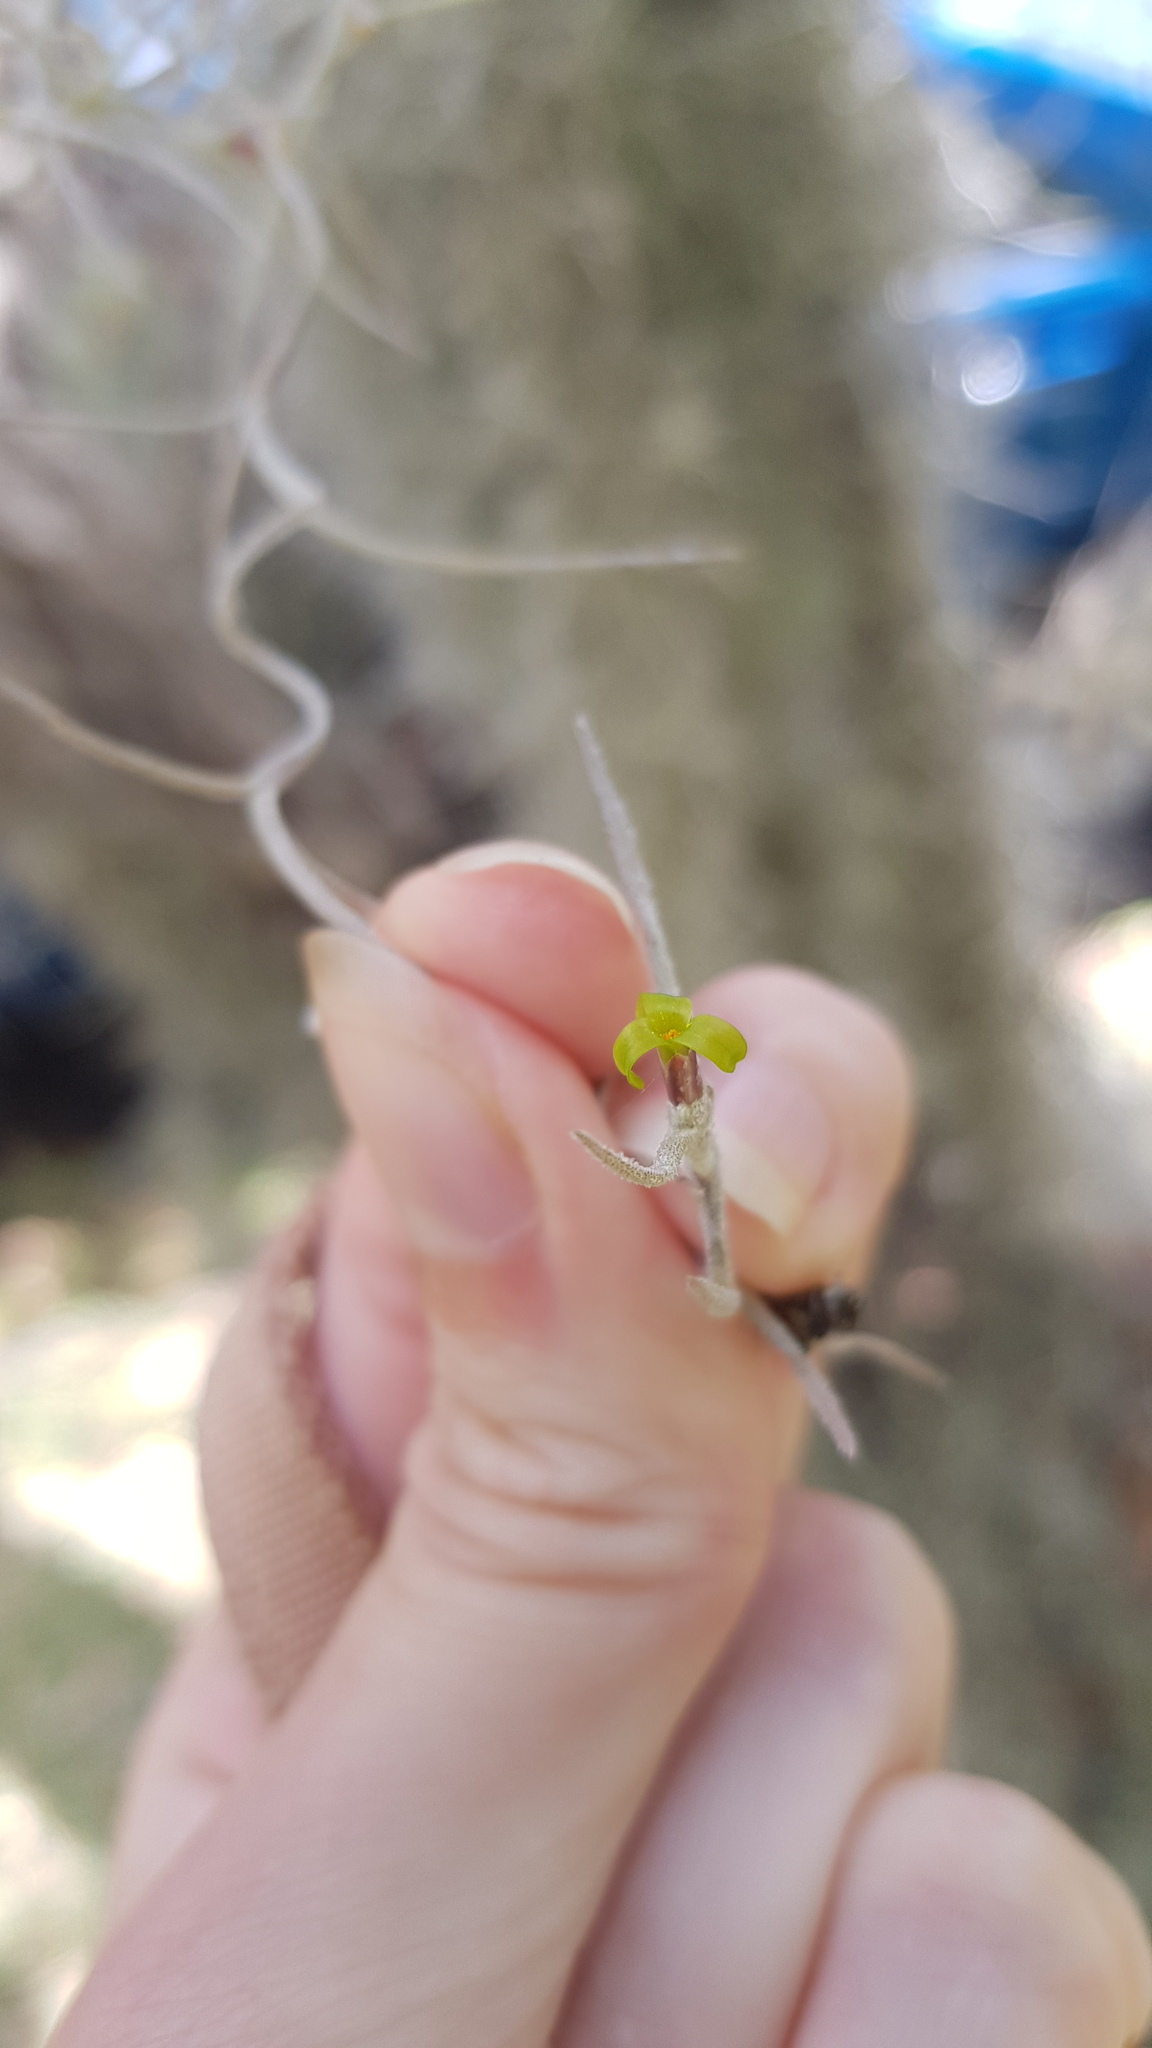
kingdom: Plantae
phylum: Tracheophyta
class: Liliopsida
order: Poales
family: Bromeliaceae
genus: Tillandsia
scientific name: Tillandsia usneoides
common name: Spanish moss
